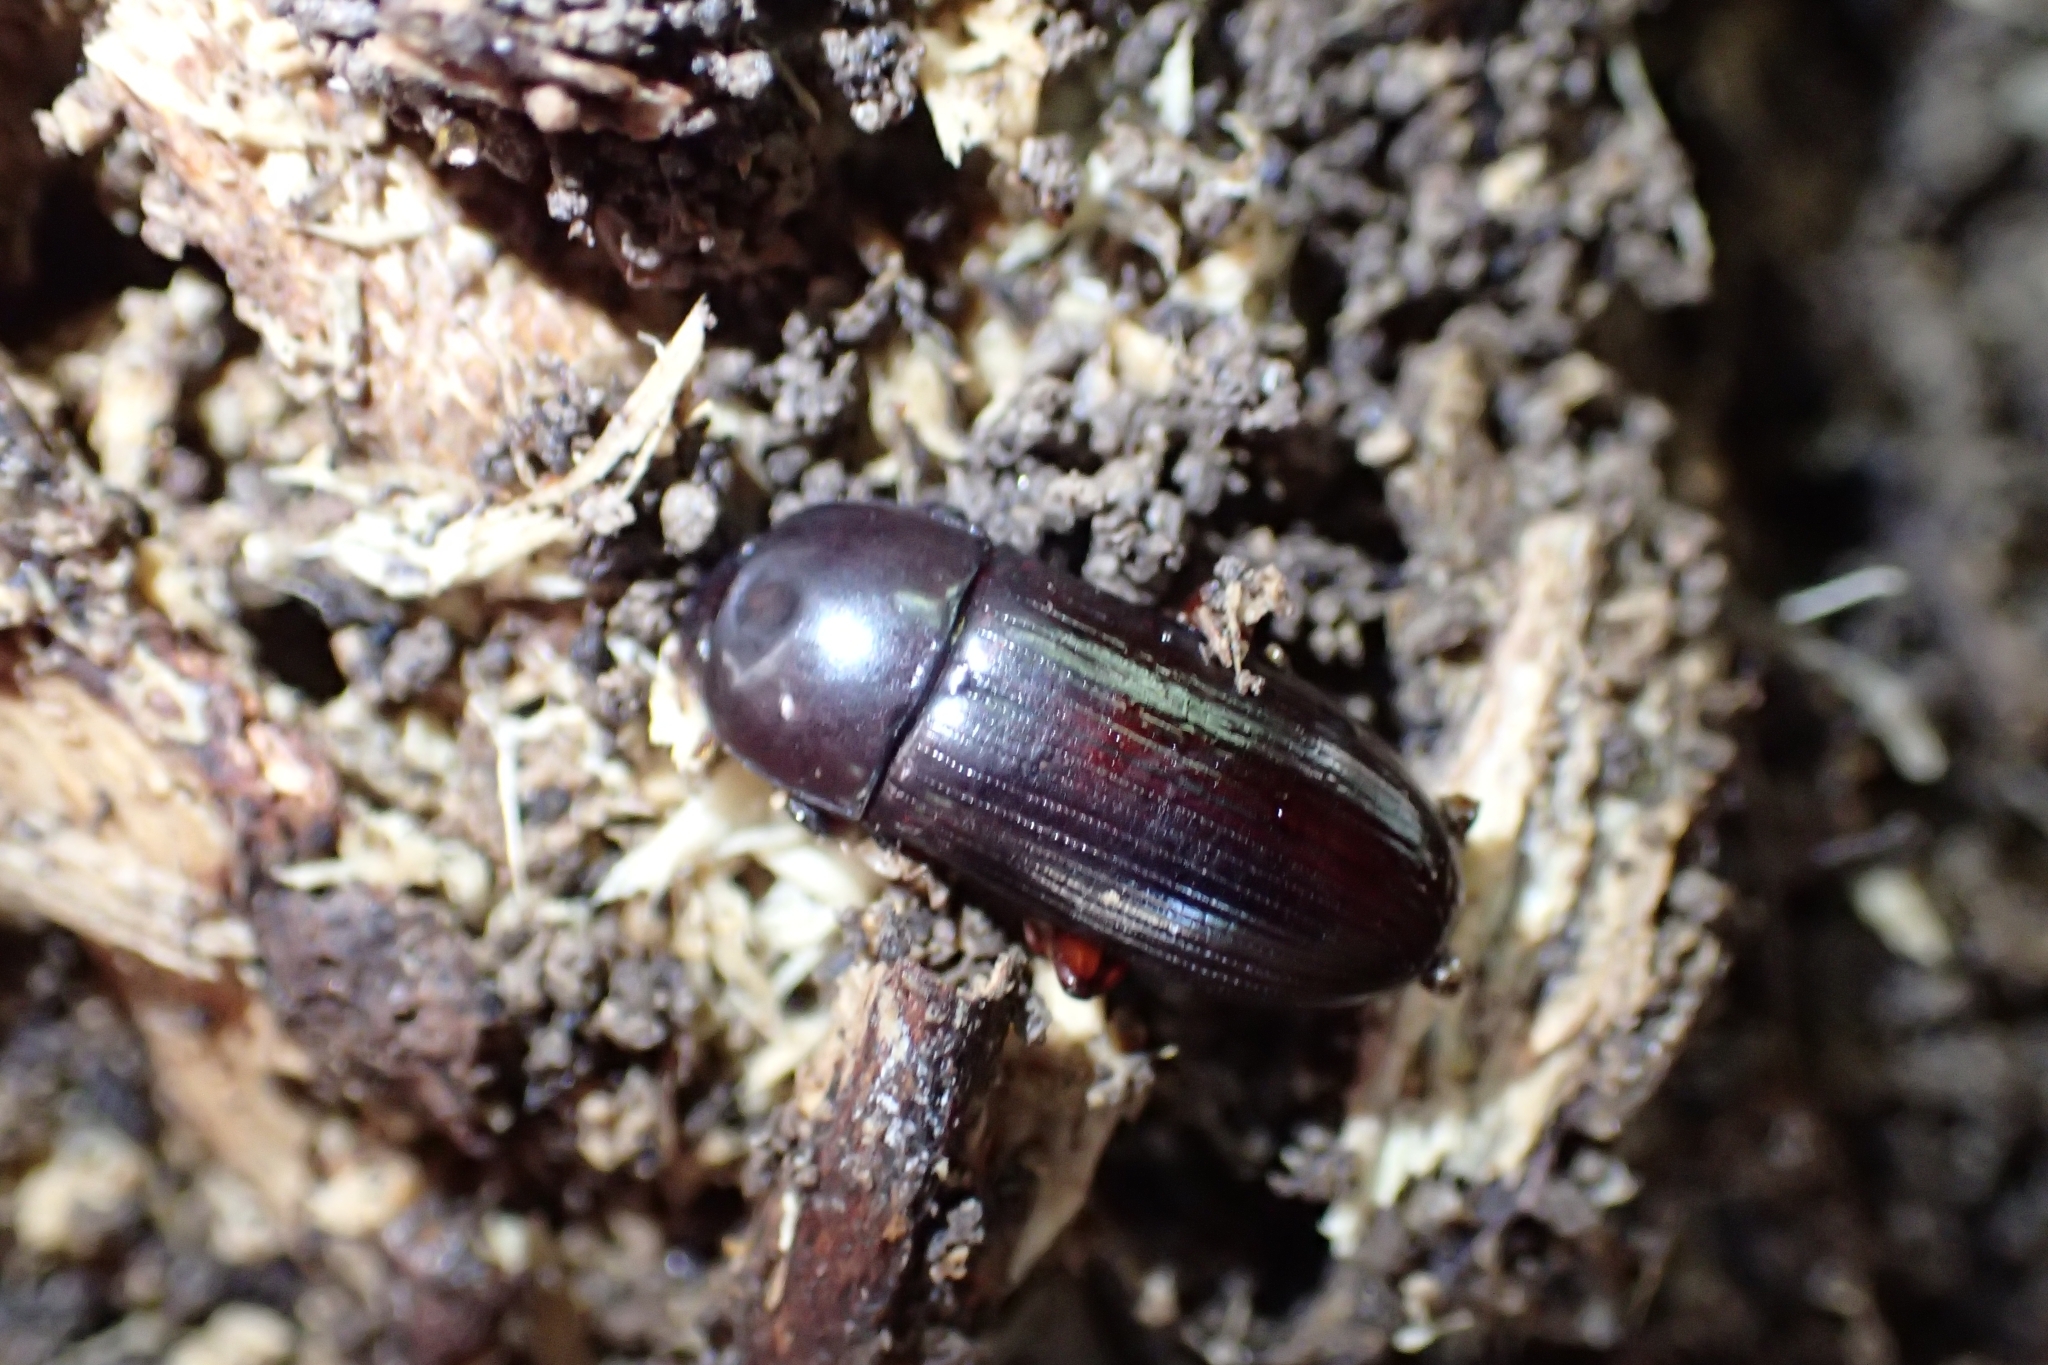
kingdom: Animalia
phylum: Arthropoda
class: Insecta
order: Coleoptera
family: Tenebrionidae
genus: Uloma
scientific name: Uloma tenebrionoides
